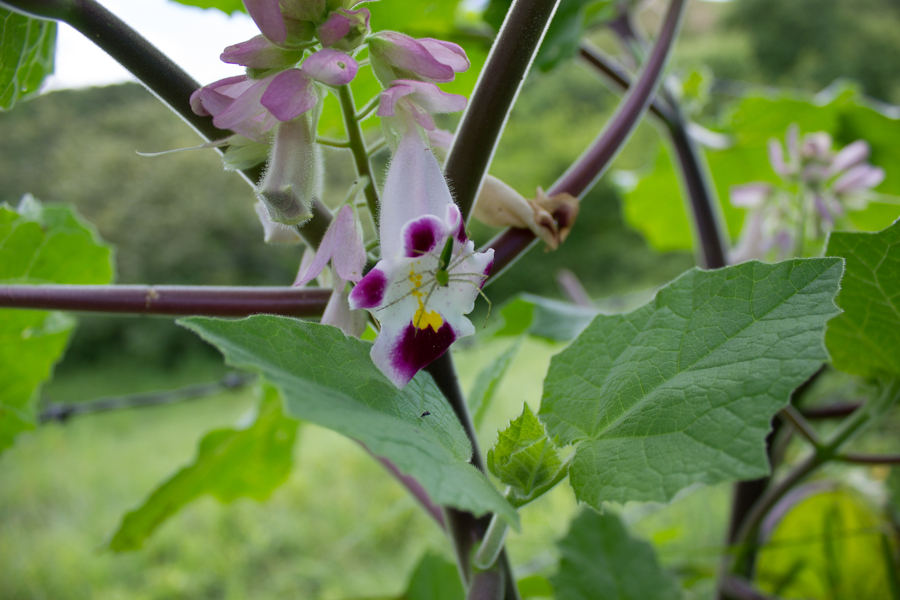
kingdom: Plantae
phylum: Tracheophyta
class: Magnoliopsida
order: Lamiales
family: Martyniaceae
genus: Martynia
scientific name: Martynia annua
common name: Tiger's-claw
